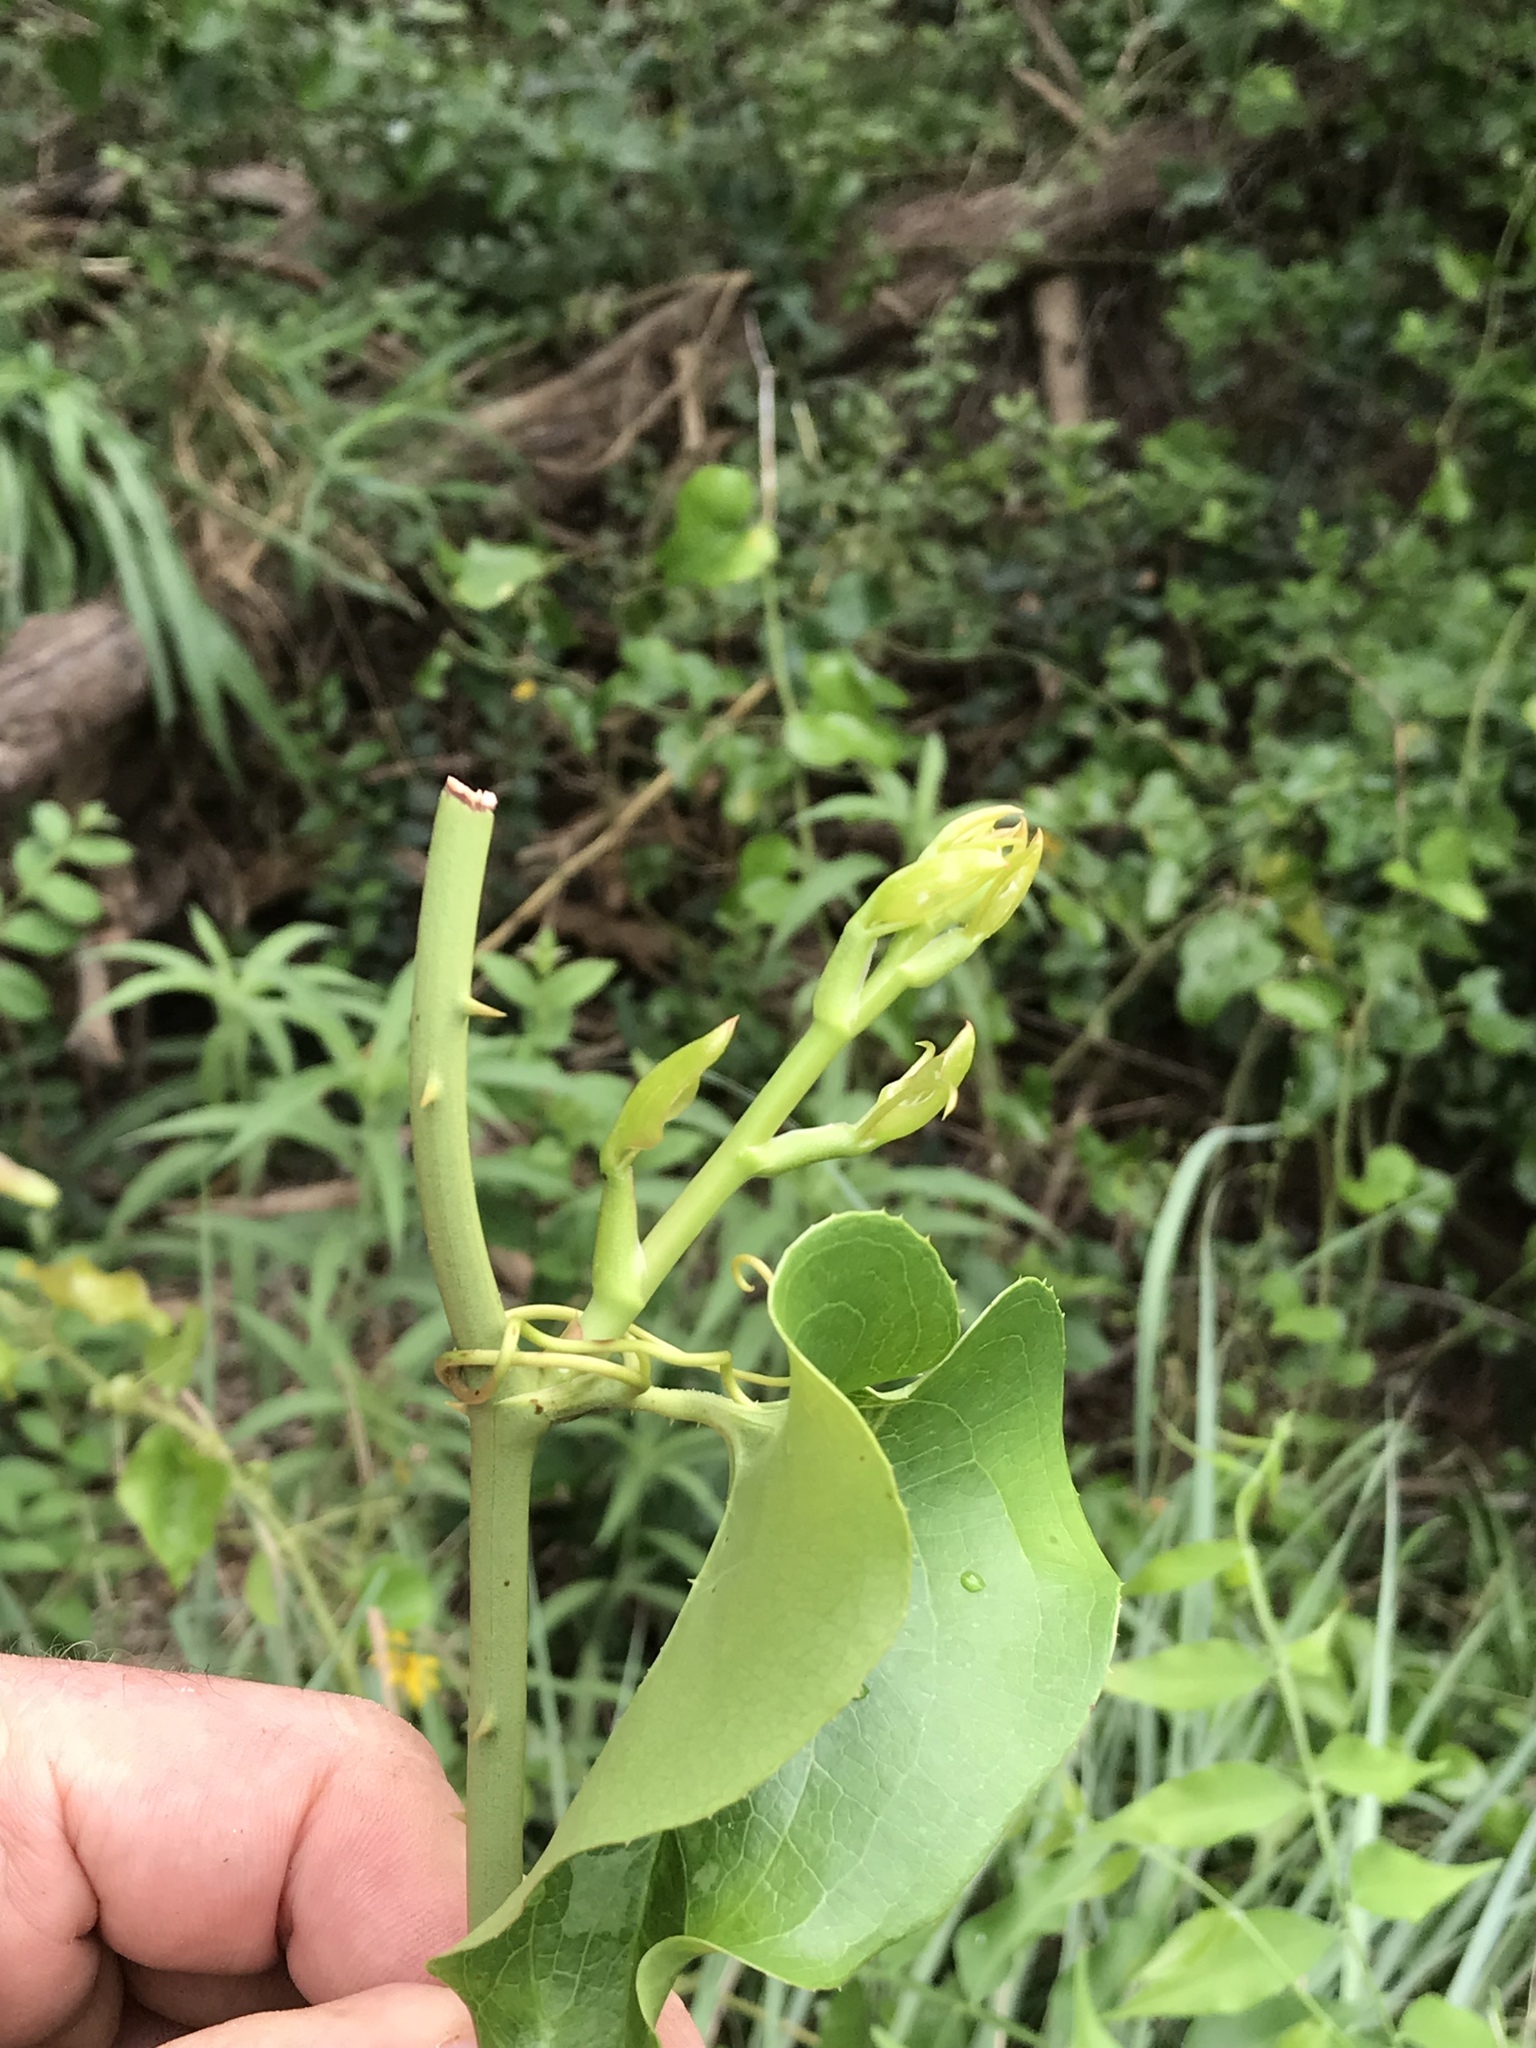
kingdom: Plantae
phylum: Tracheophyta
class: Liliopsida
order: Liliales
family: Smilacaceae
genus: Smilax
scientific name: Smilax bona-nox
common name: Catbrier
